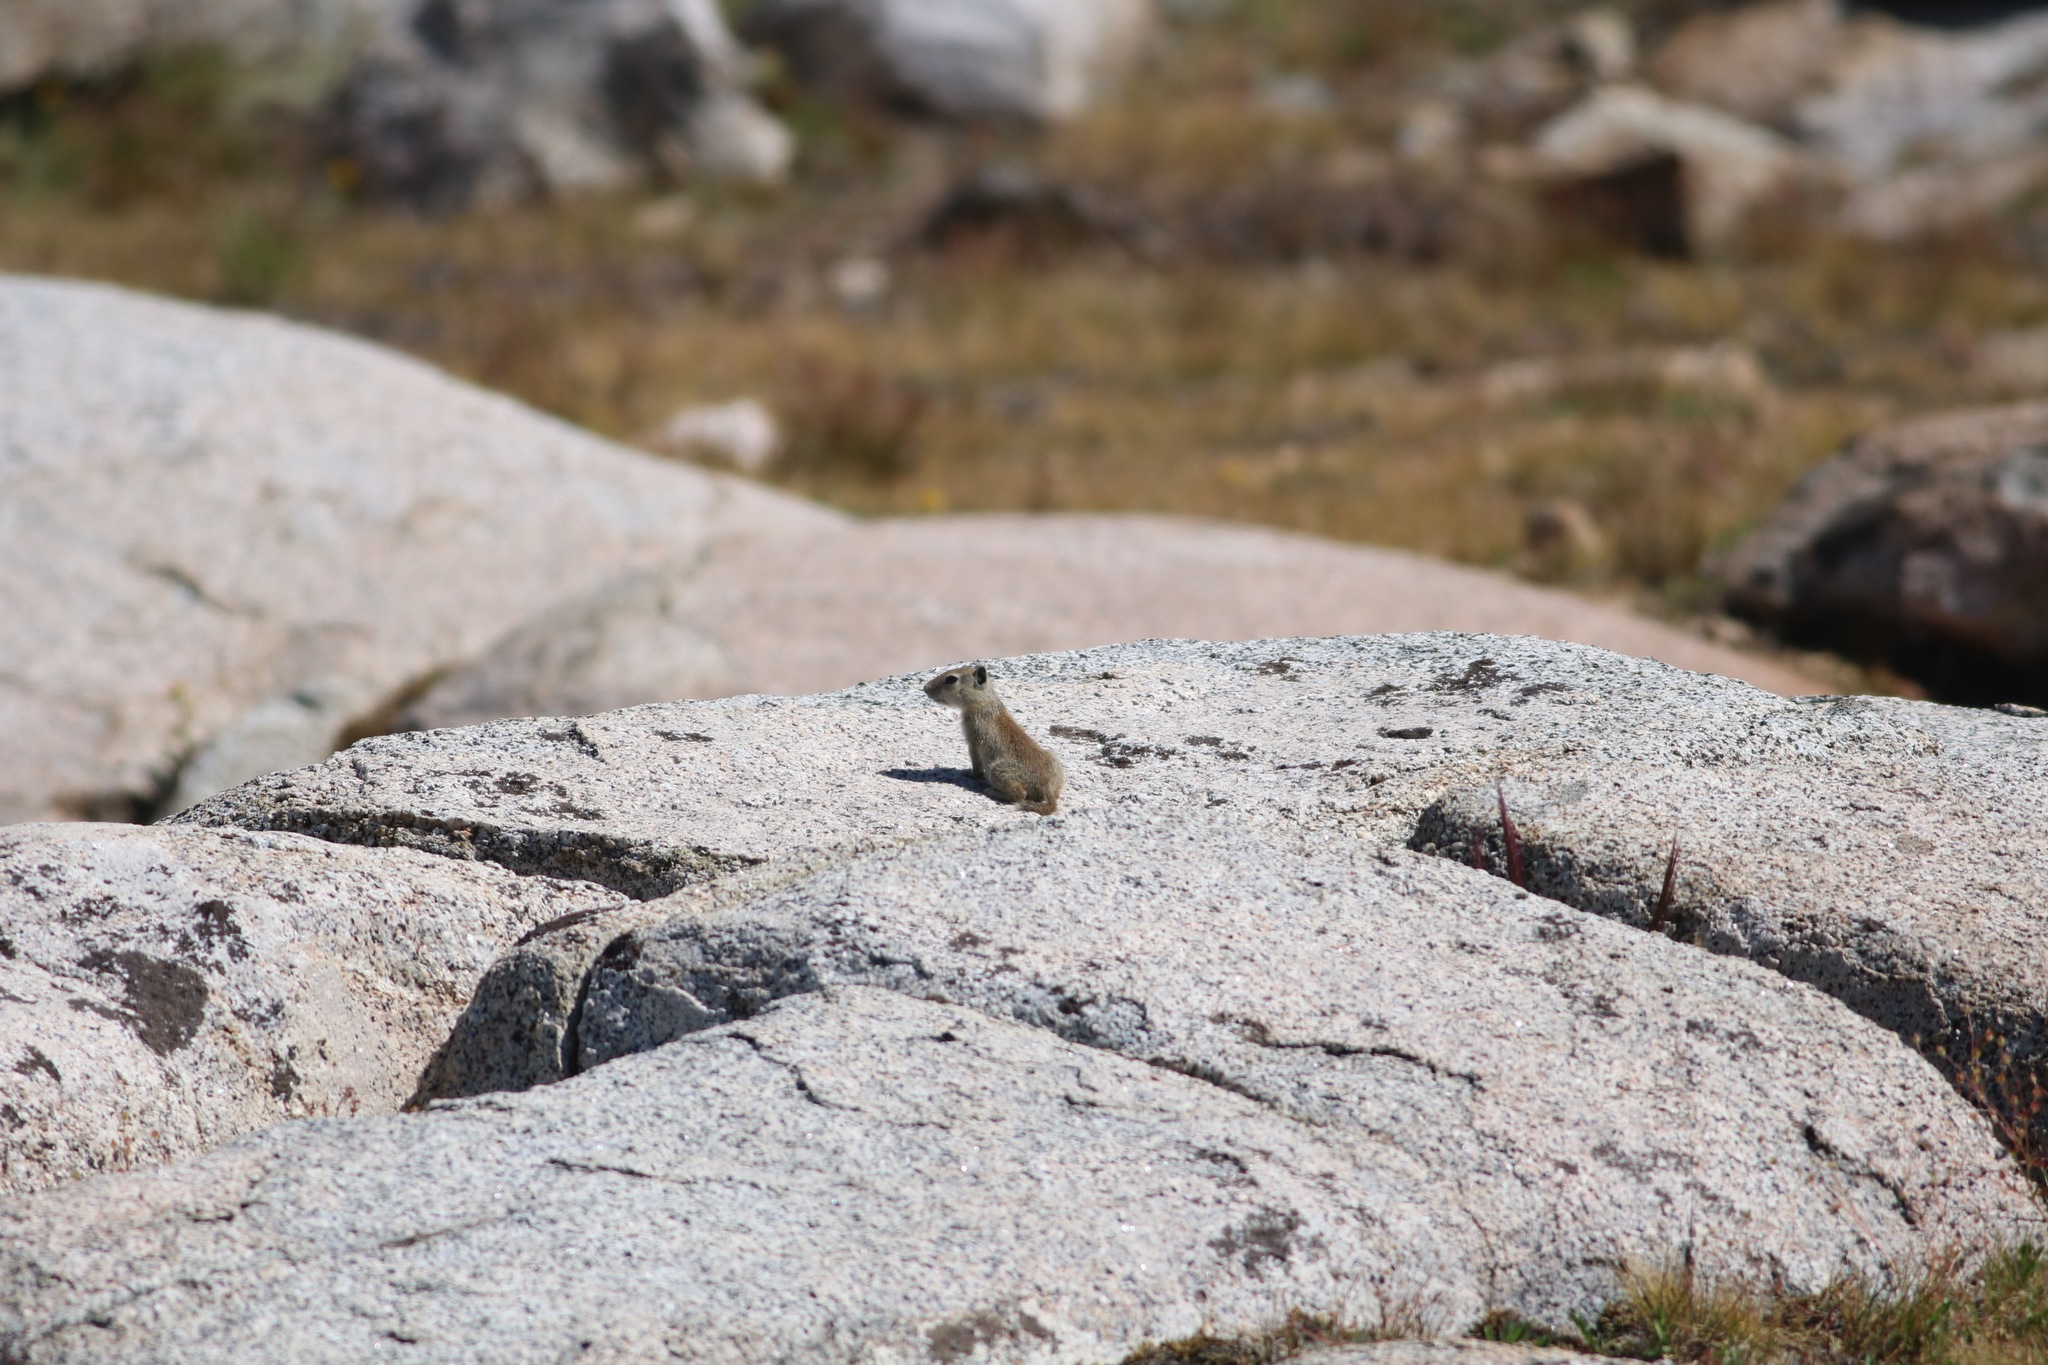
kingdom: Animalia
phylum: Chordata
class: Mammalia
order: Rodentia
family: Sciuridae
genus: Urocitellus
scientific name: Urocitellus beldingi
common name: Belding's ground squirrel
